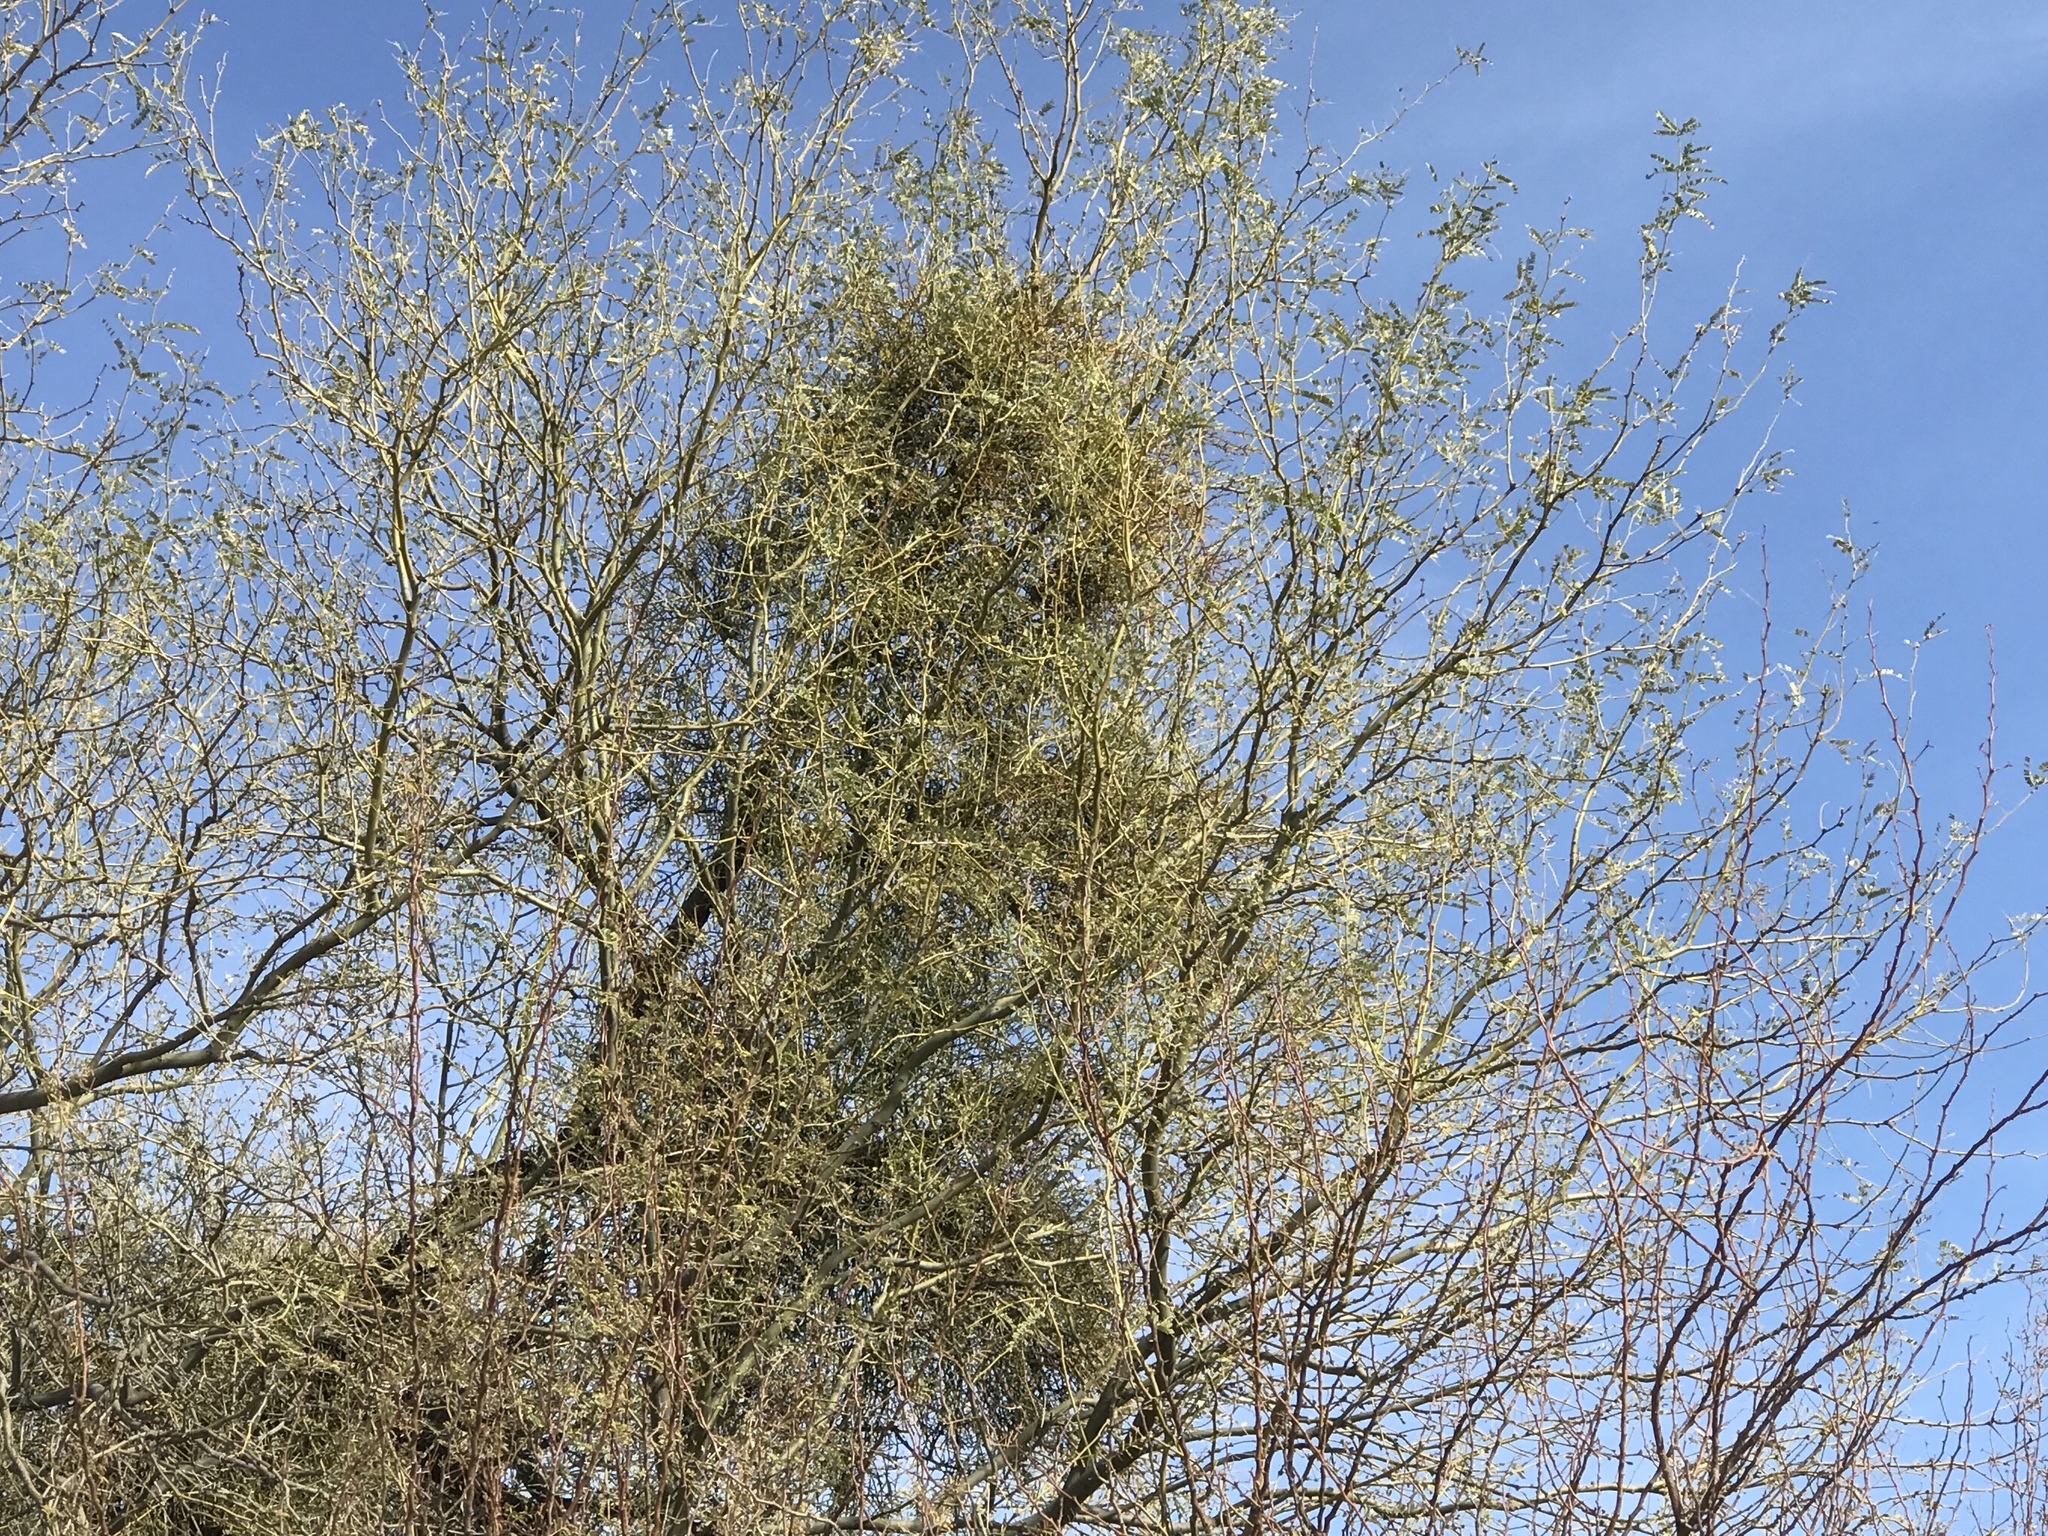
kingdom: Plantae
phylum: Tracheophyta
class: Magnoliopsida
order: Santalales
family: Viscaceae
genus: Phoradendron
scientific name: Phoradendron californicum
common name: Acacia mistletoe
